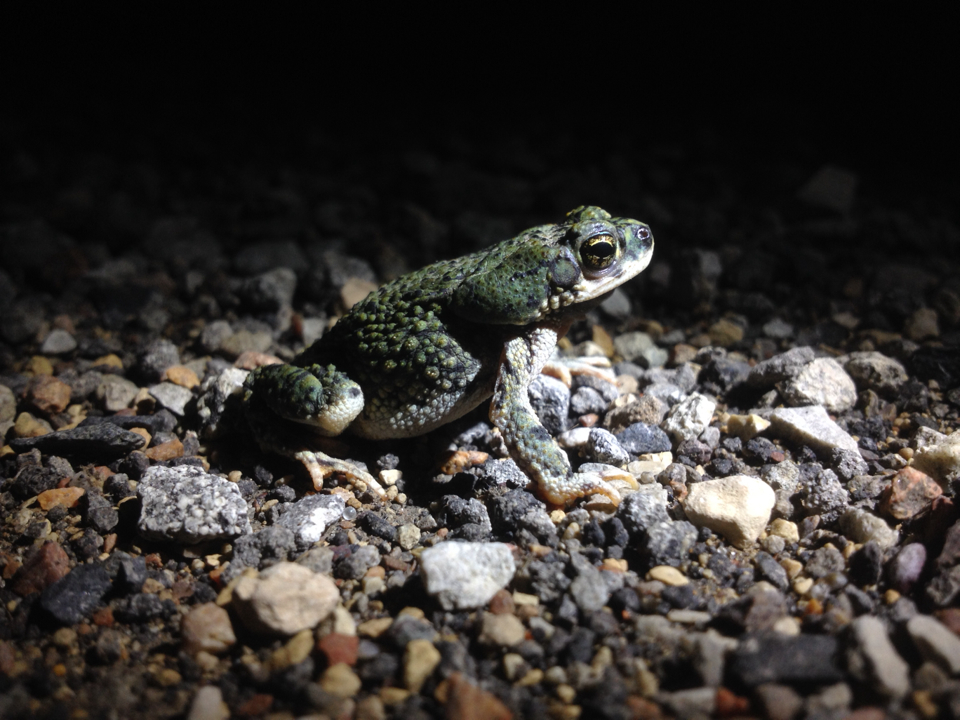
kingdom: Animalia
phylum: Chordata
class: Amphibia
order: Anura
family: Bufonidae
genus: Anaxyrus
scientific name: Anaxyrus debilis
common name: Green toad
